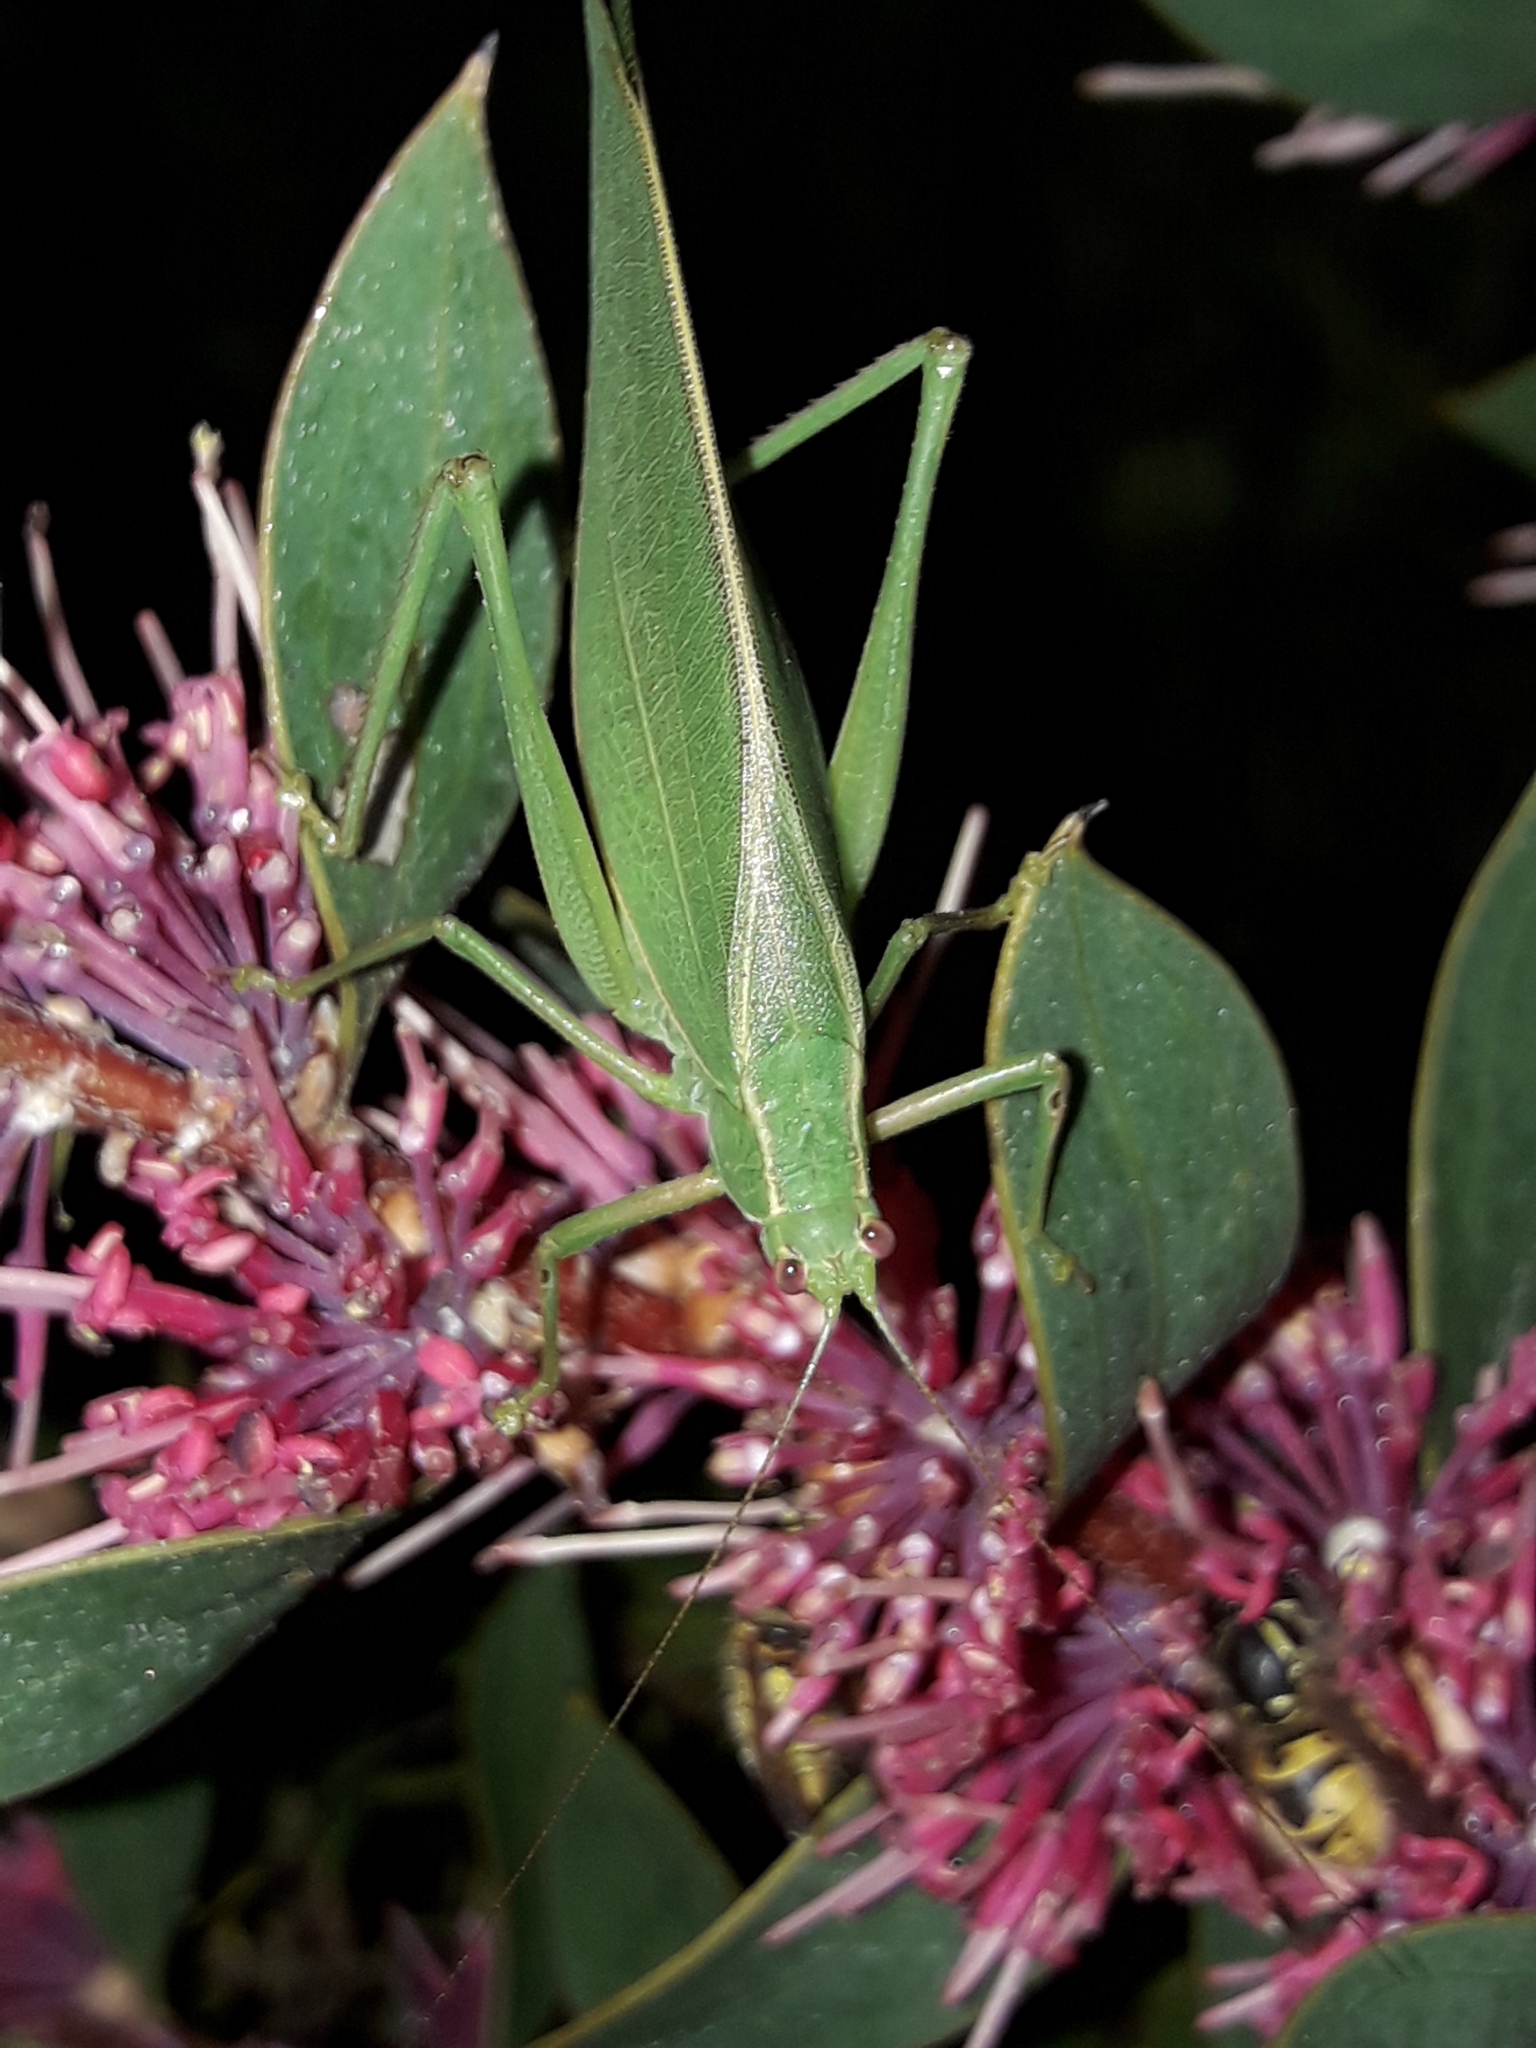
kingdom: Animalia
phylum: Arthropoda
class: Insecta
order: Orthoptera
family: Tettigoniidae
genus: Caedicia
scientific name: Caedicia simplex
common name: Common garden katydid
